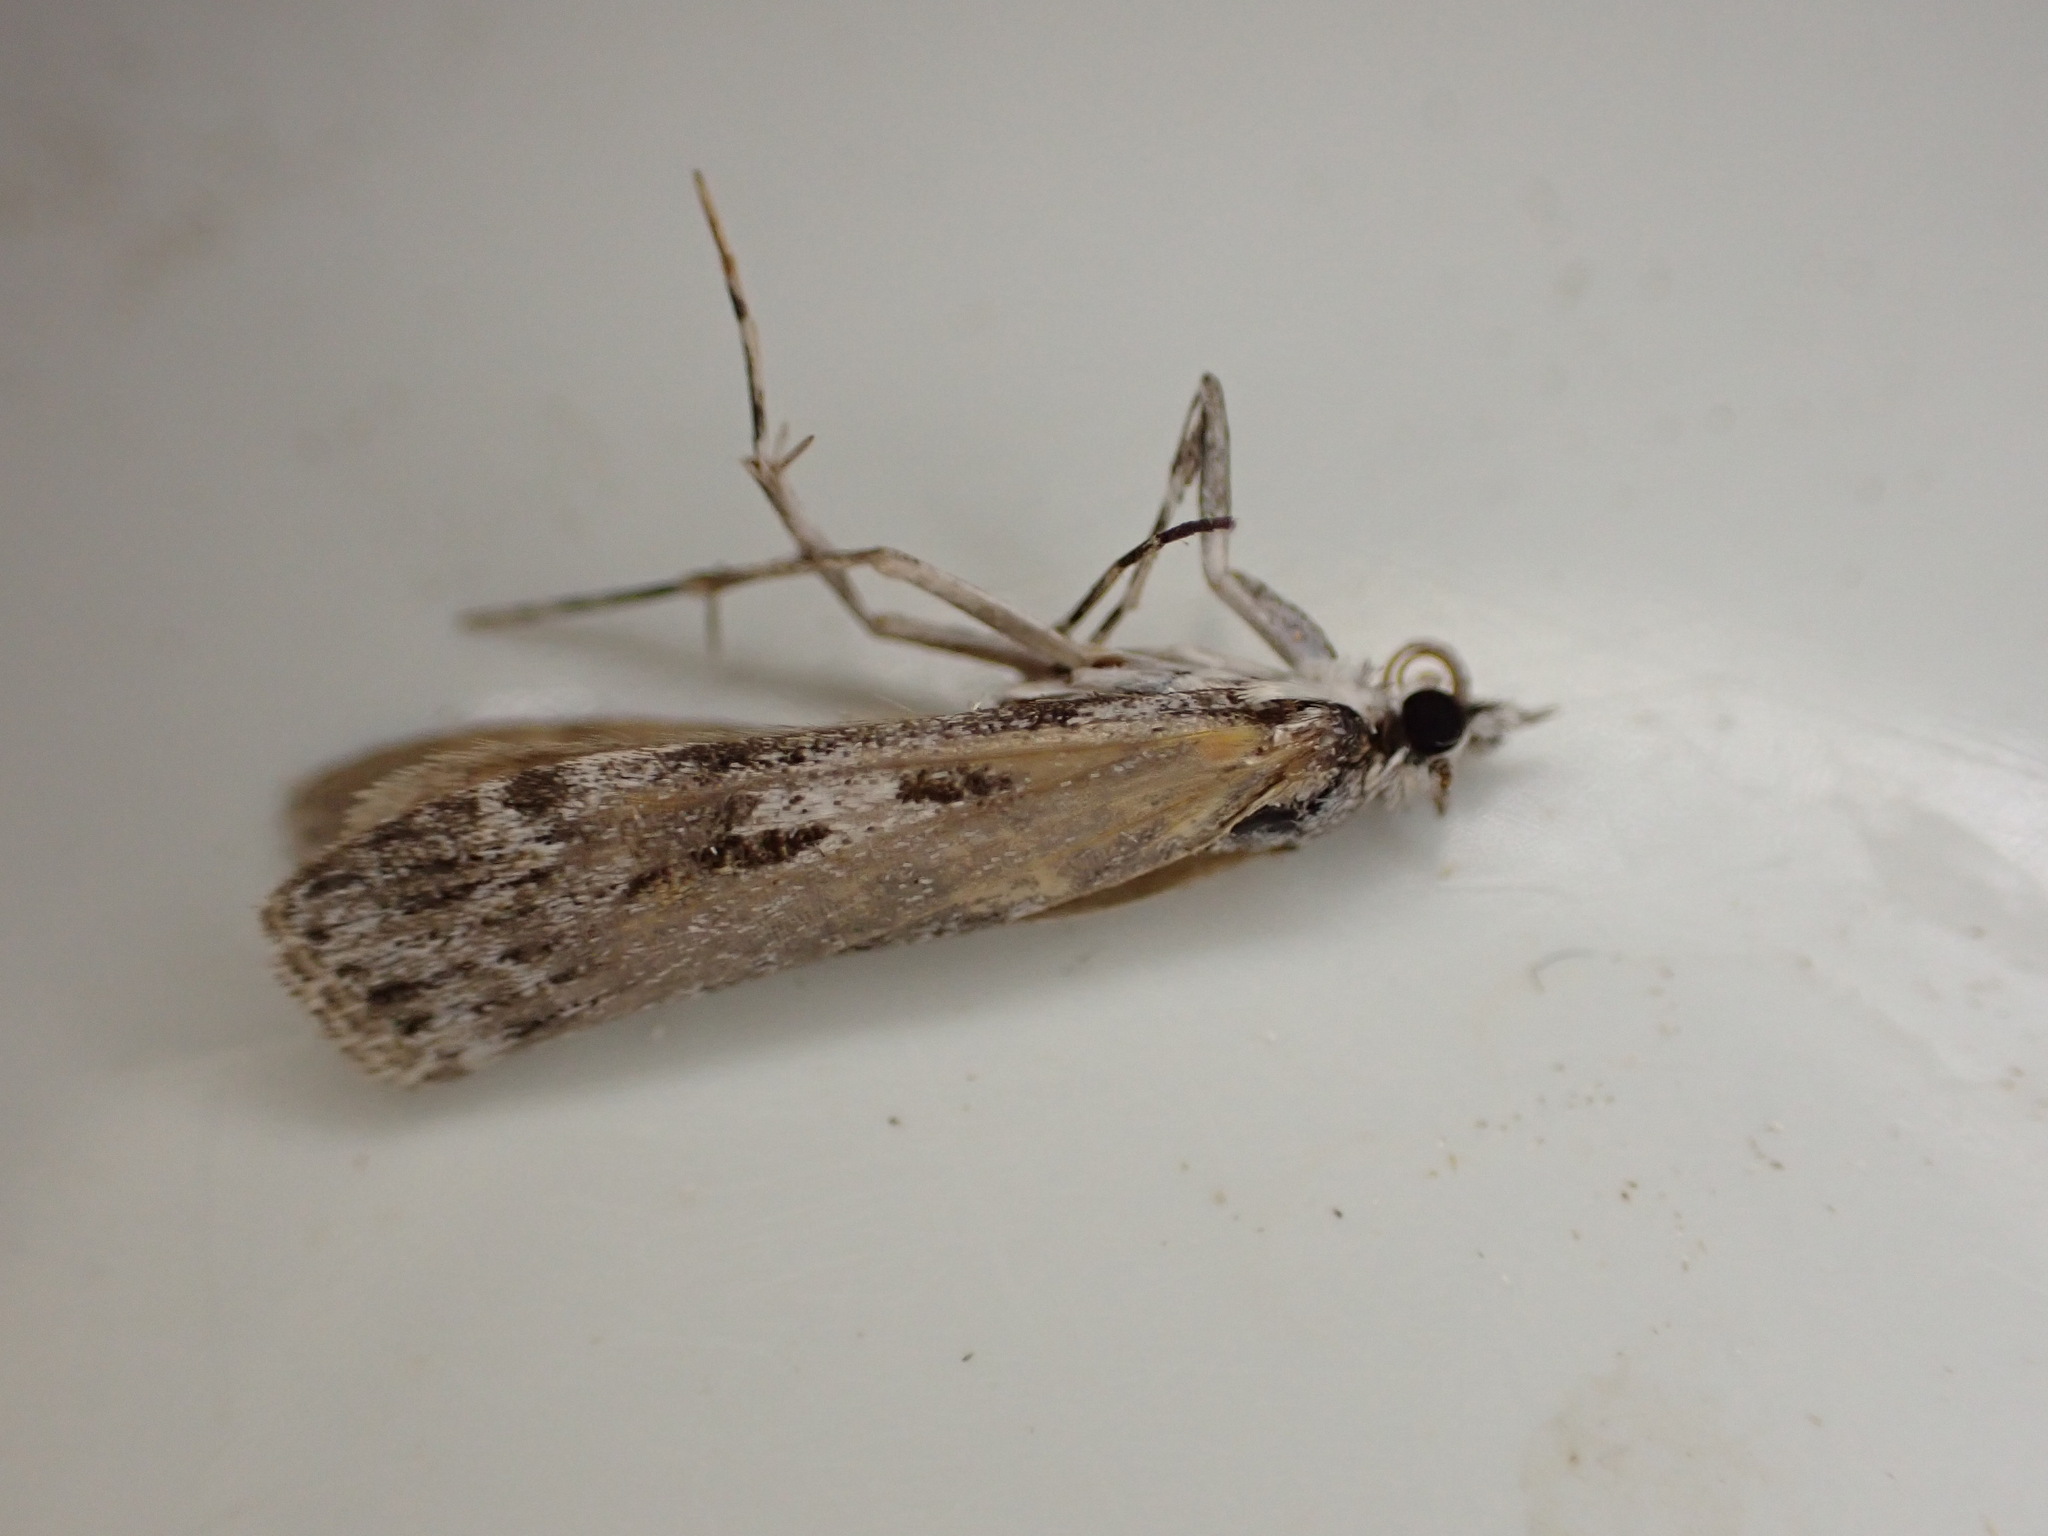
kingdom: Animalia
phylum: Arthropoda
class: Insecta
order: Lepidoptera
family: Crambidae
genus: Scoparia
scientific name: Scoparia halopis
